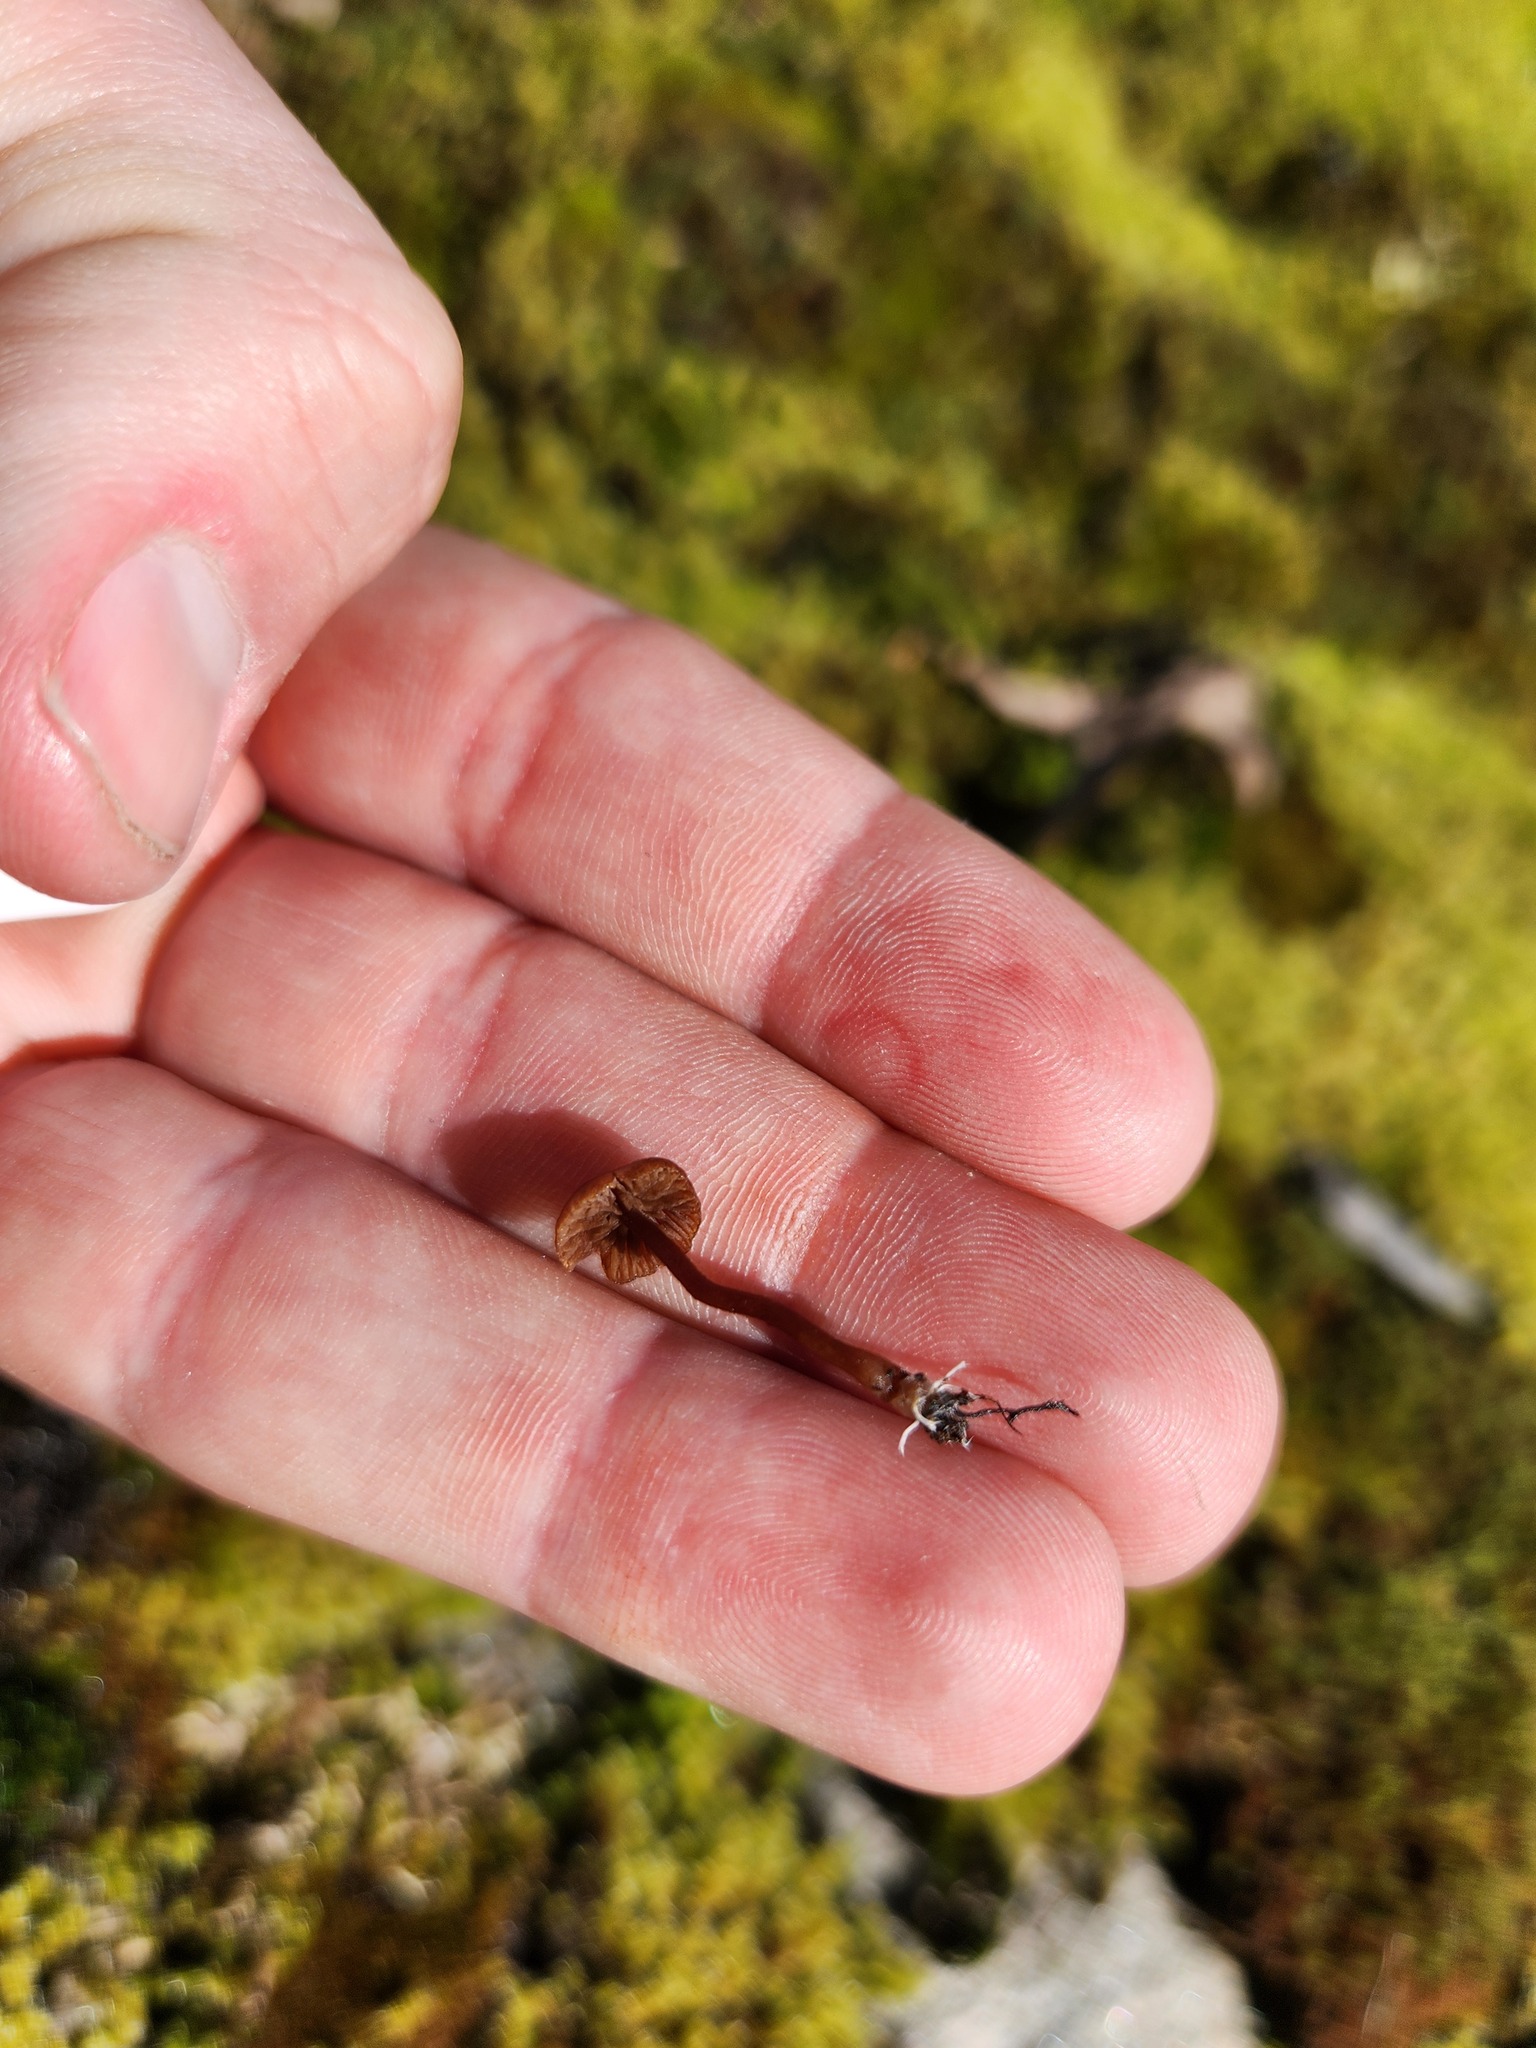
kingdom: Fungi
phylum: Basidiomycota
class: Agaricomycetes
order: Agaricales
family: Strophariaceae
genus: Deconica
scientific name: Deconica montana
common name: Mountain moss deconica
